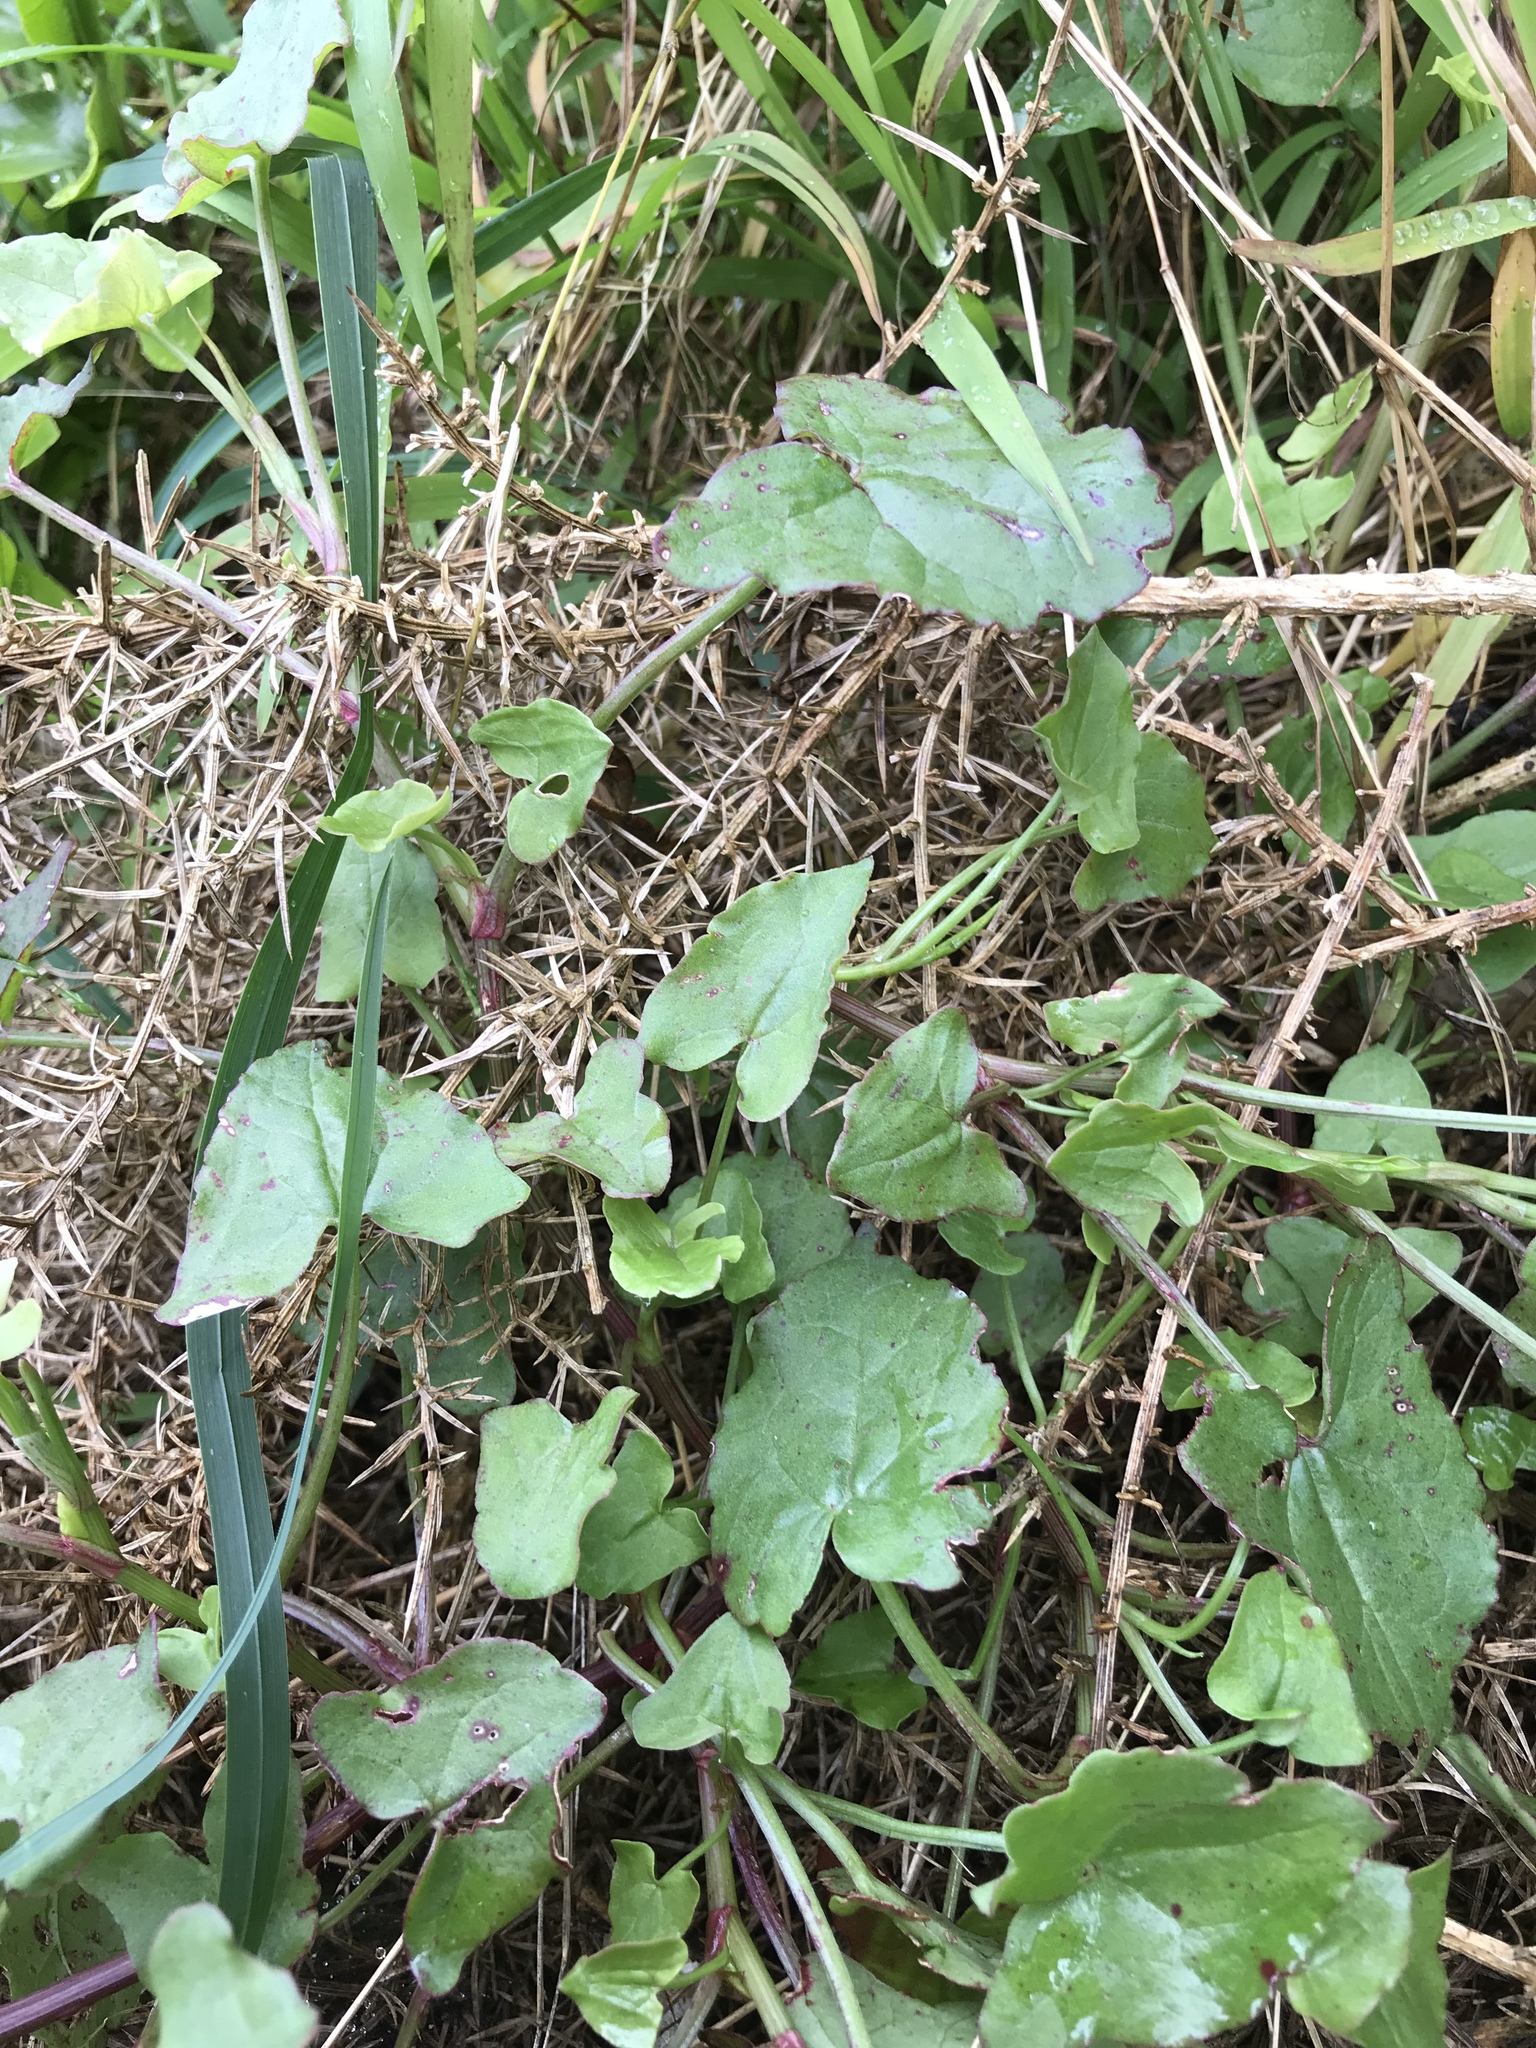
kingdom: Plantae
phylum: Tracheophyta
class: Magnoliopsida
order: Caryophyllales
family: Polygonaceae
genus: Rumex
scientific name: Rumex sagittatus
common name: Climbing dock
